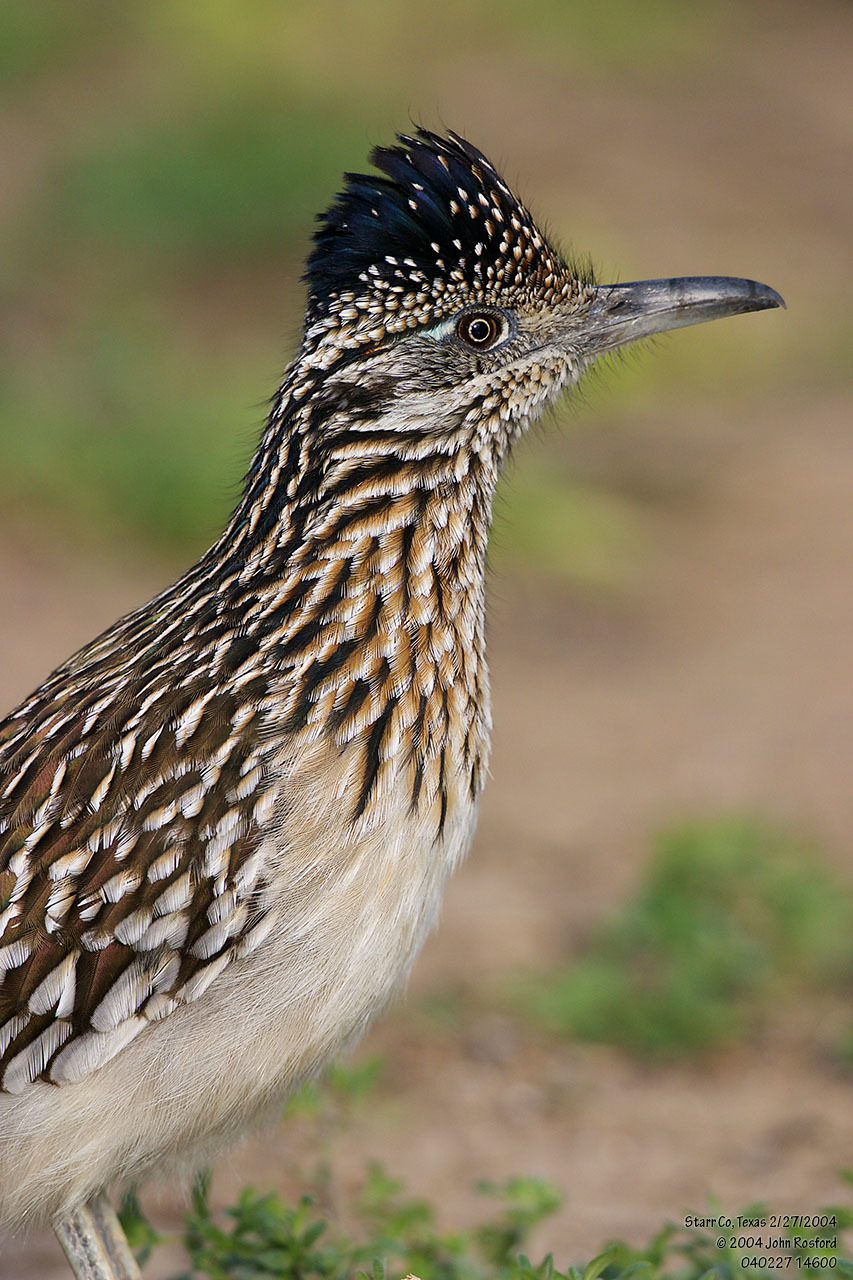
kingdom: Animalia
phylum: Chordata
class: Aves
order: Cuculiformes
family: Cuculidae
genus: Geococcyx
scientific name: Geococcyx californianus
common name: Greater roadrunner
